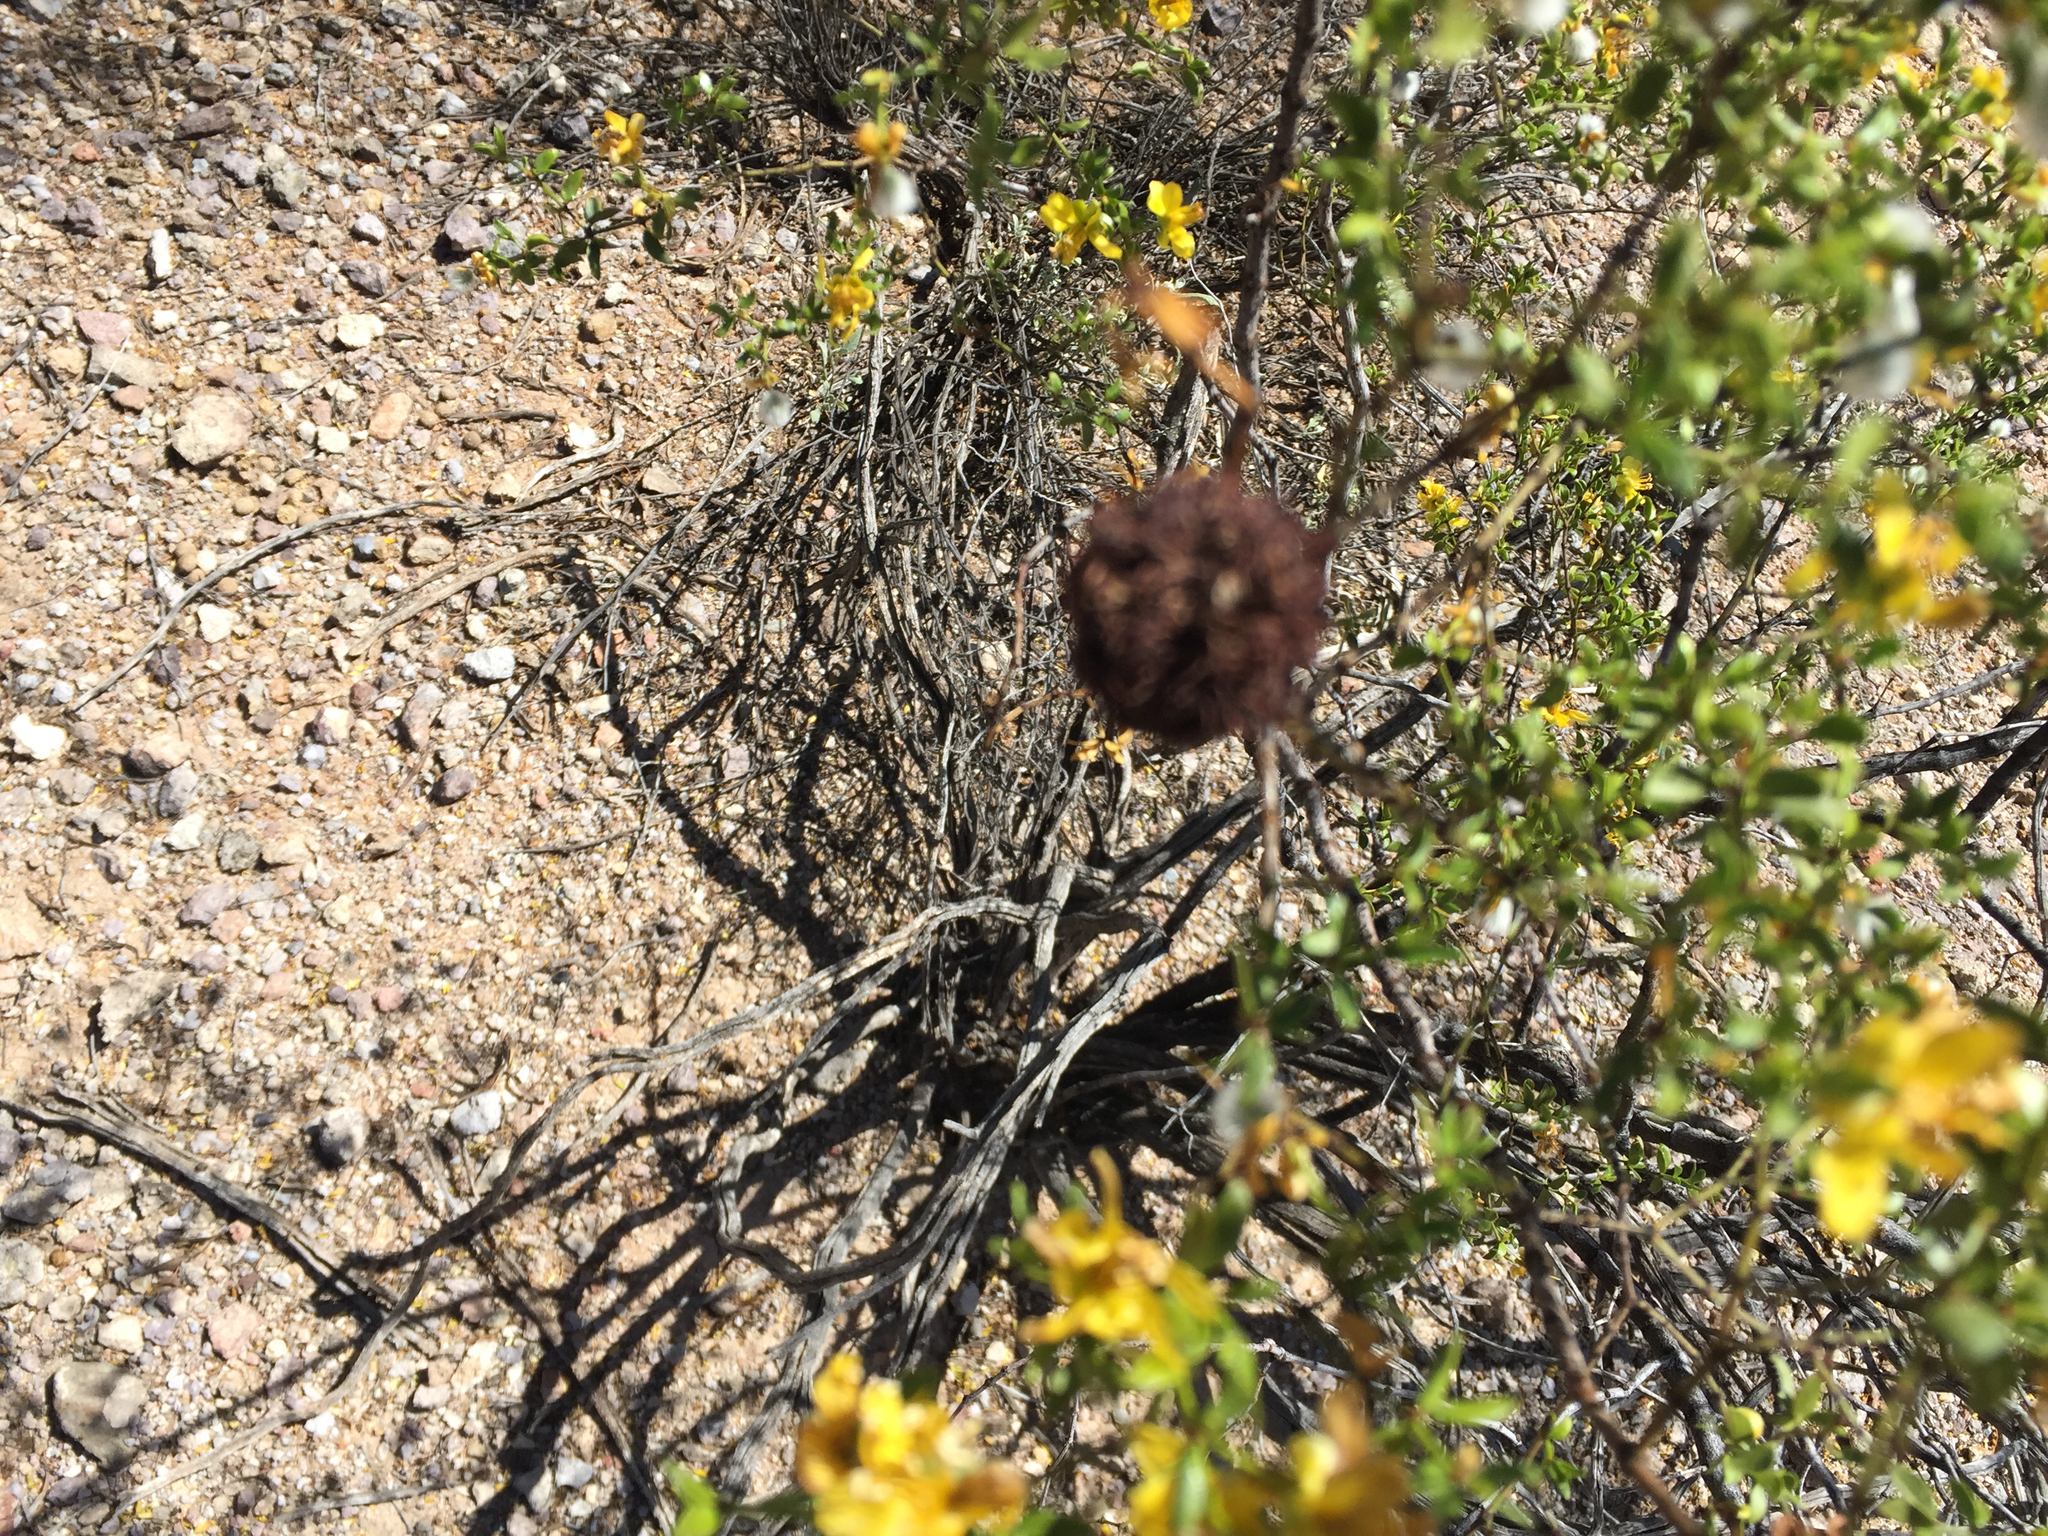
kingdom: Animalia
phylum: Arthropoda
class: Insecta
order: Diptera
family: Cecidomyiidae
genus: Asphondylia
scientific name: Asphondylia auripila
